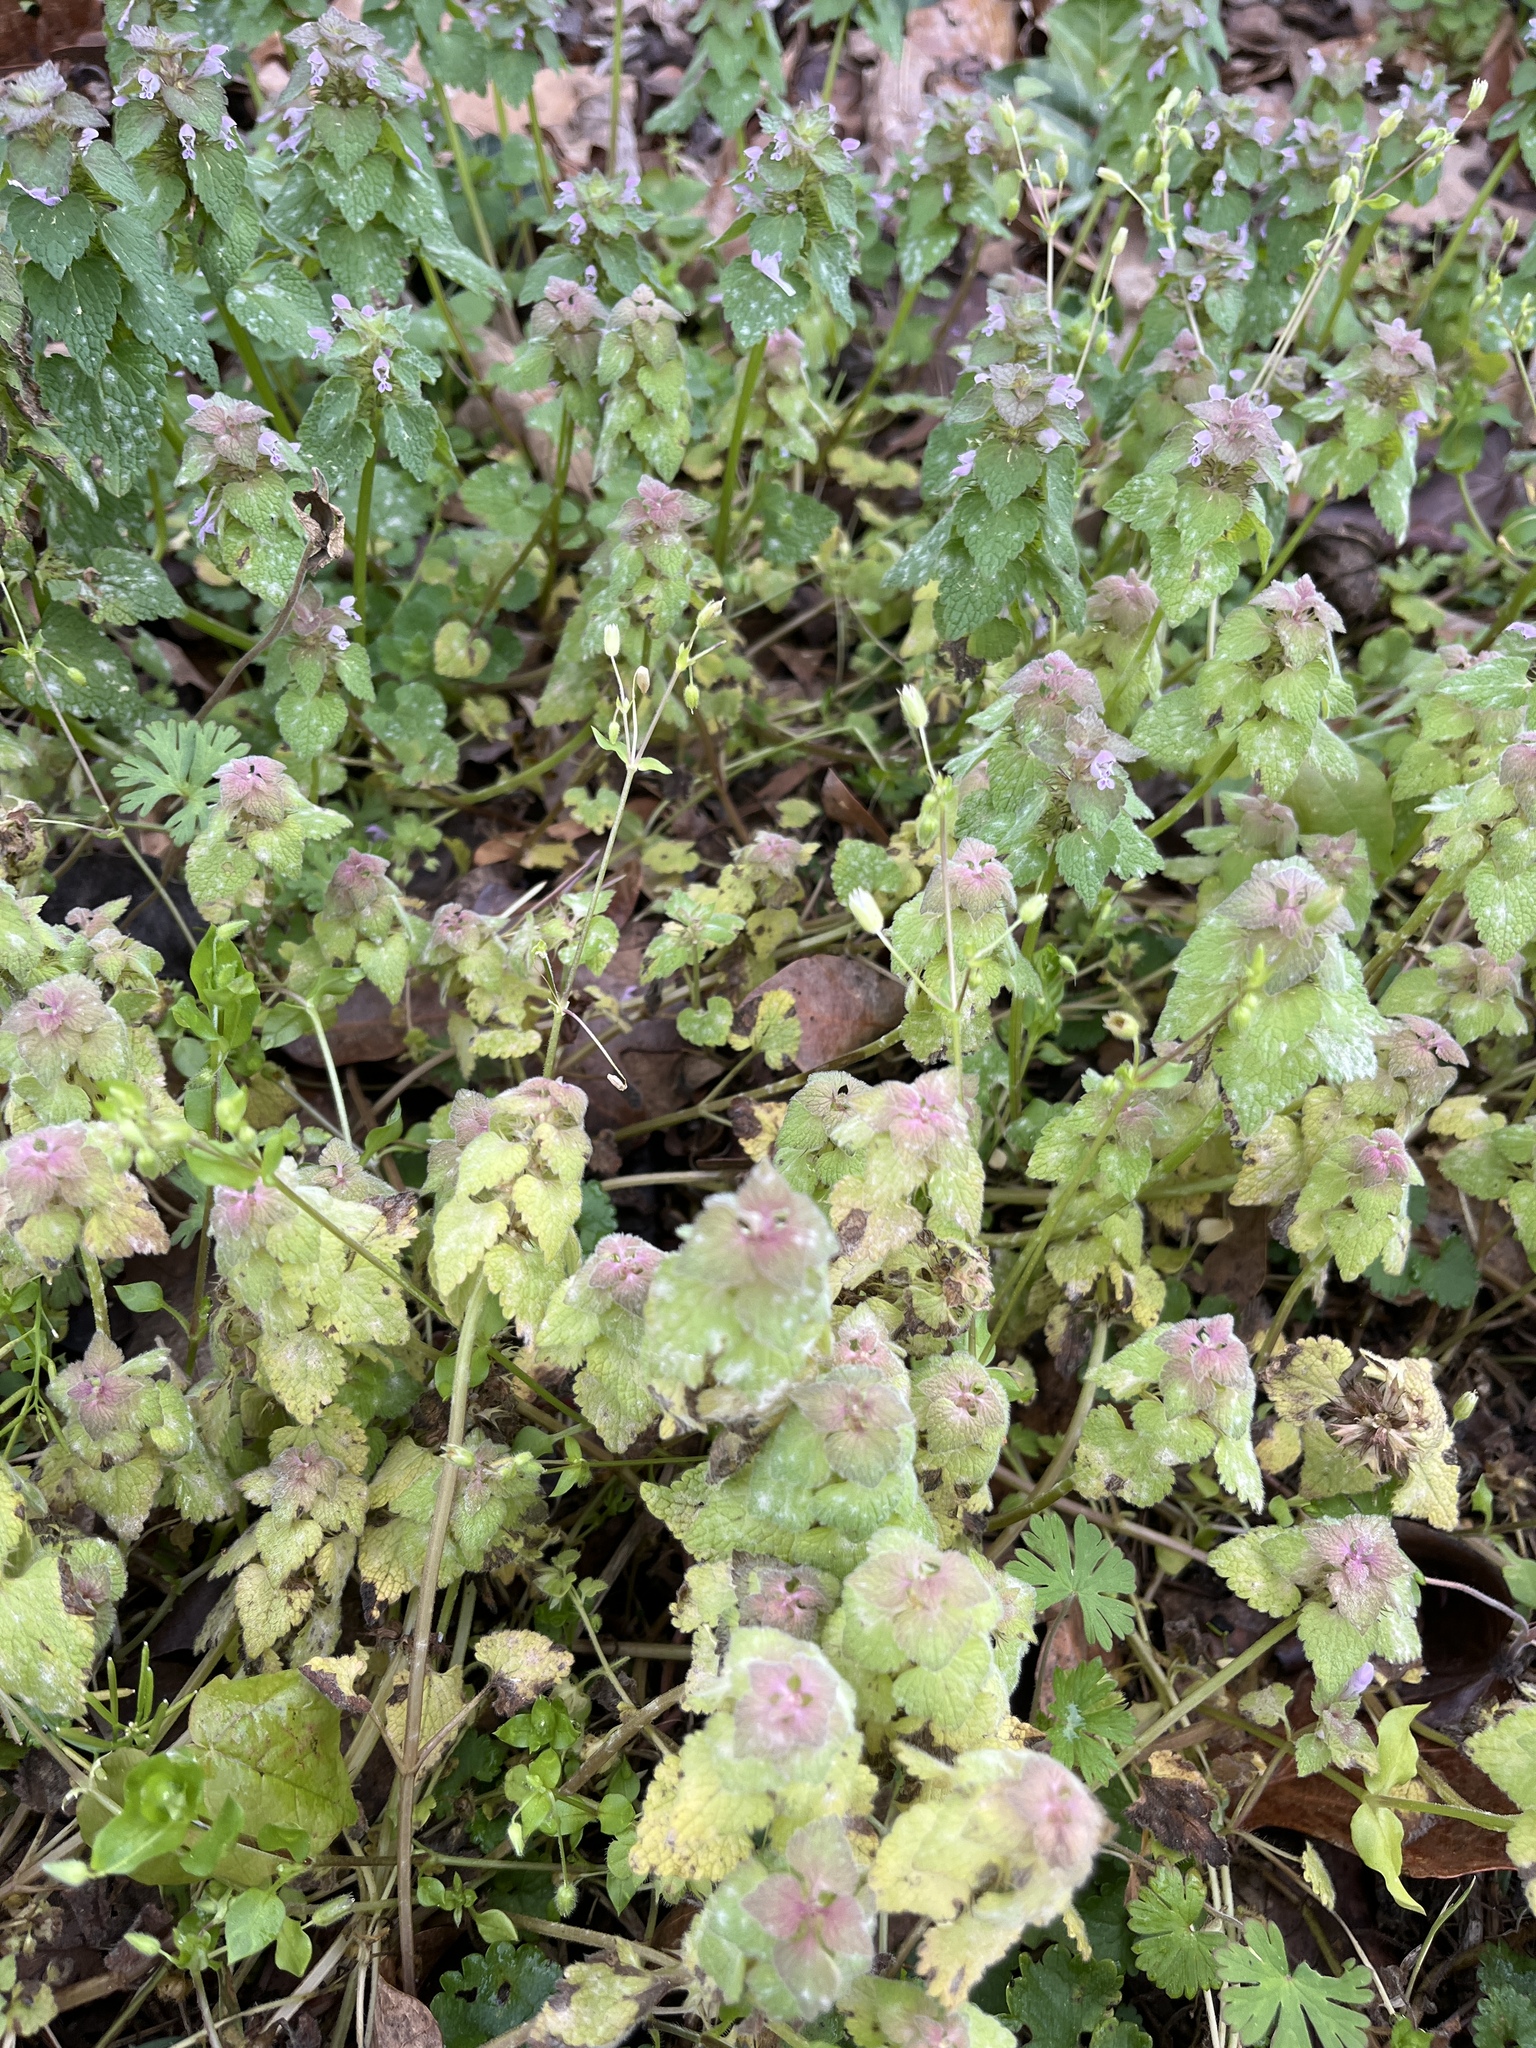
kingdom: Plantae
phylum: Tracheophyta
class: Magnoliopsida
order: Lamiales
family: Lamiaceae
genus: Lamium
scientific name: Lamium purpureum
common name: Red dead-nettle
